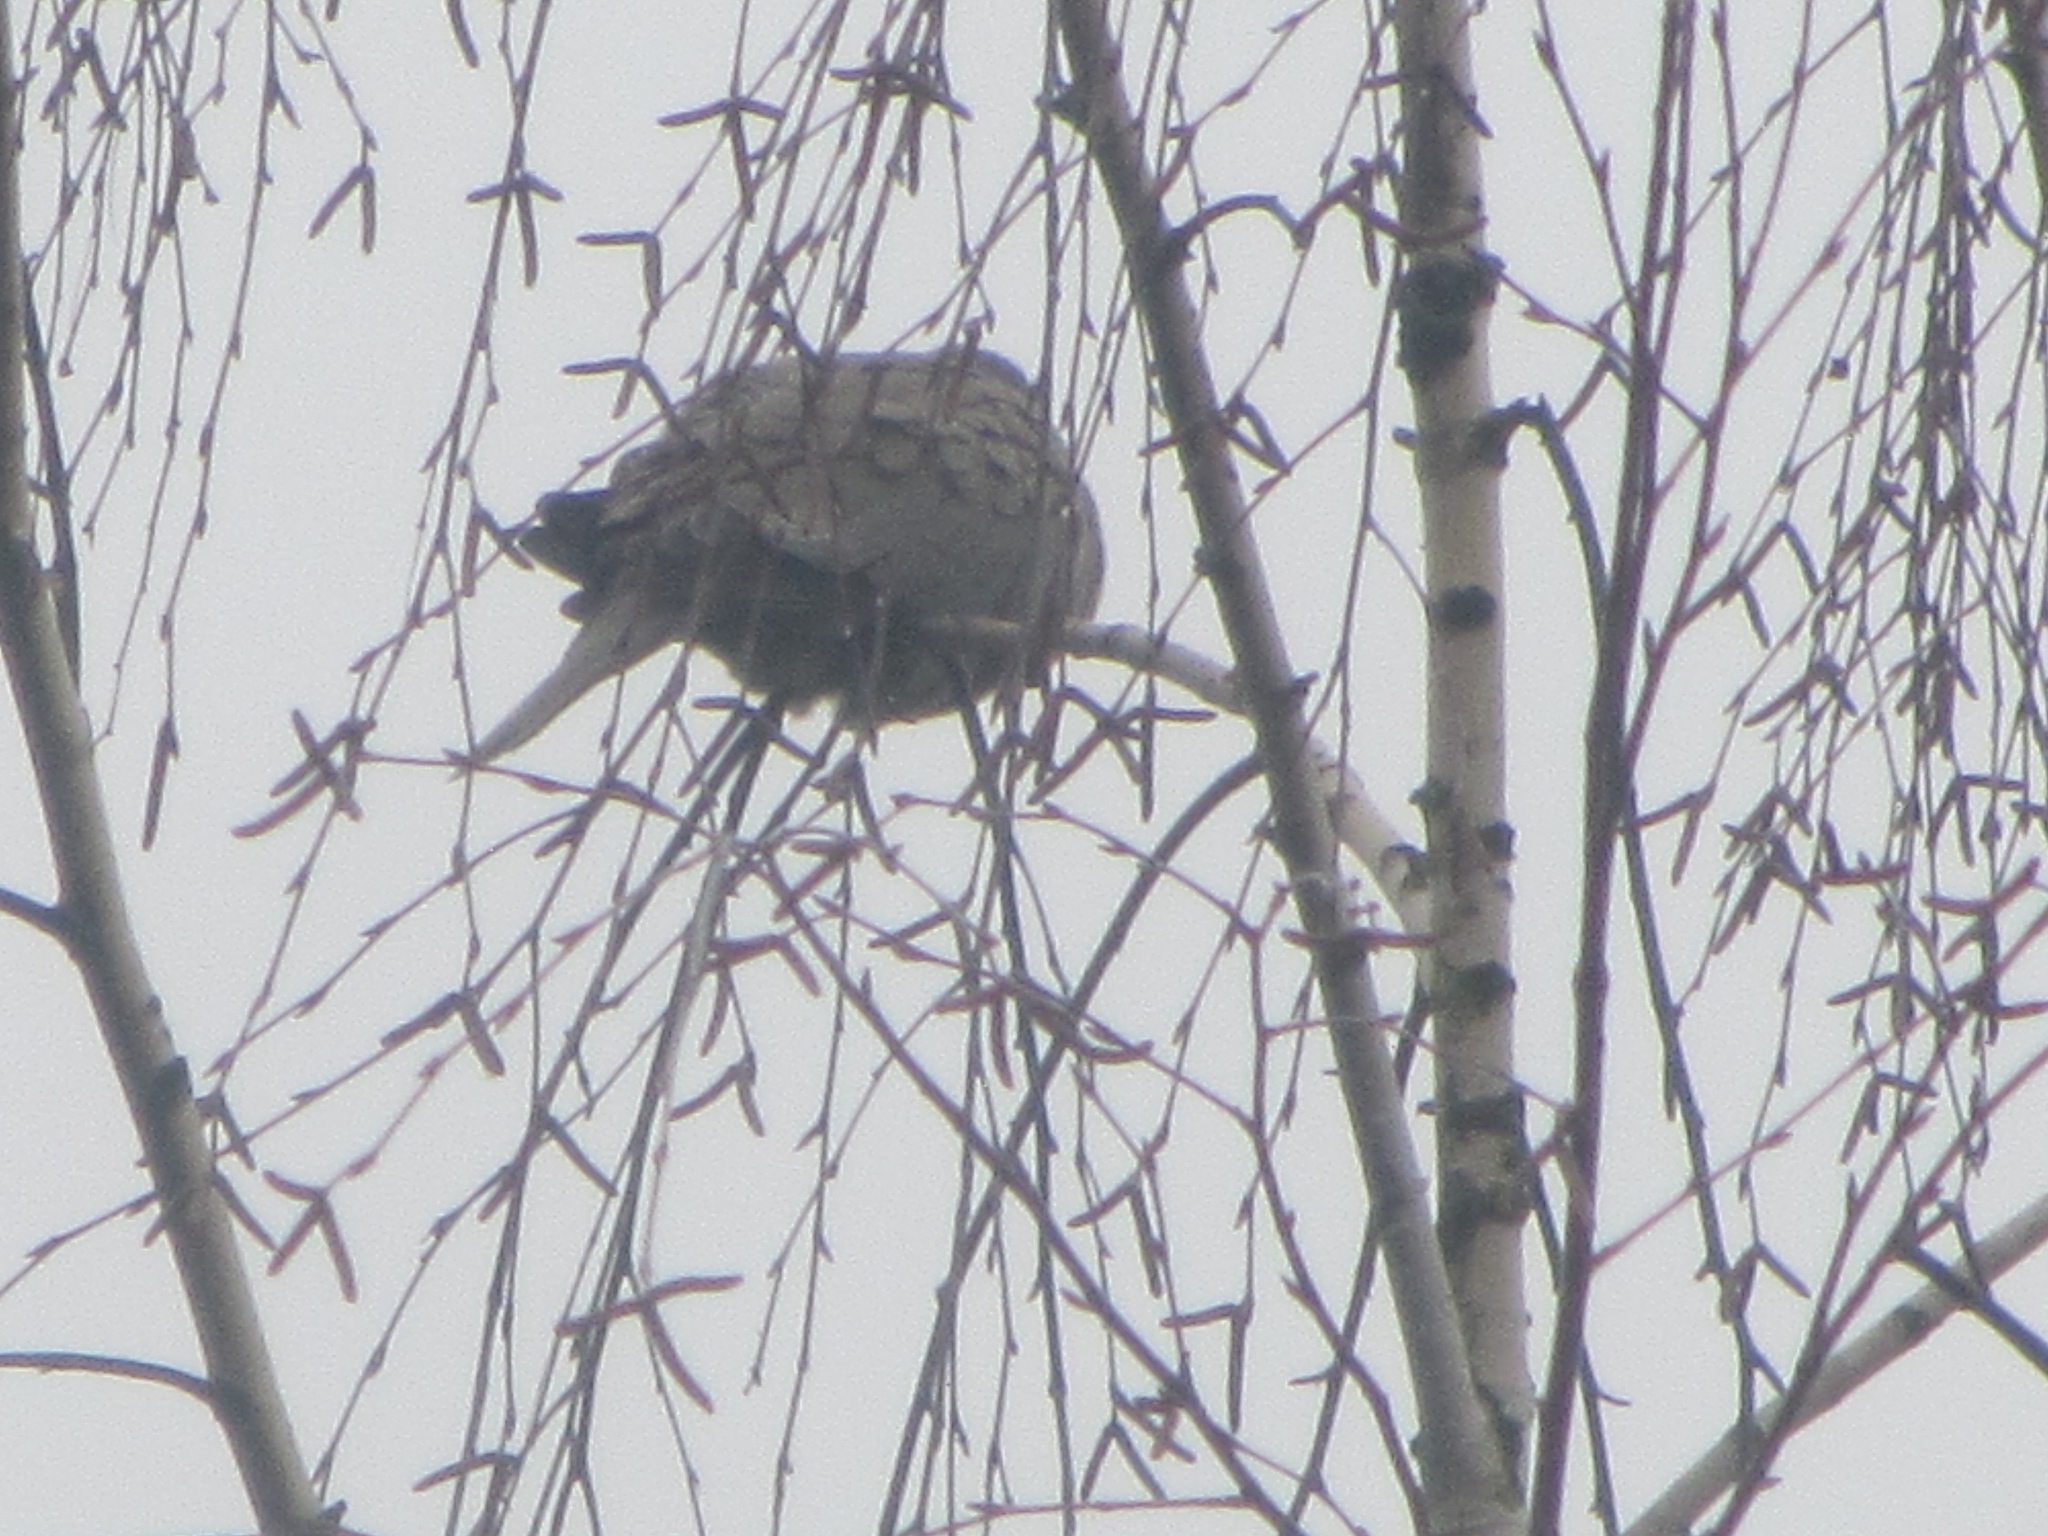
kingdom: Animalia
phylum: Chordata
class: Aves
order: Columbiformes
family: Columbidae
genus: Zenaida
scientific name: Zenaida macroura
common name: Mourning dove
